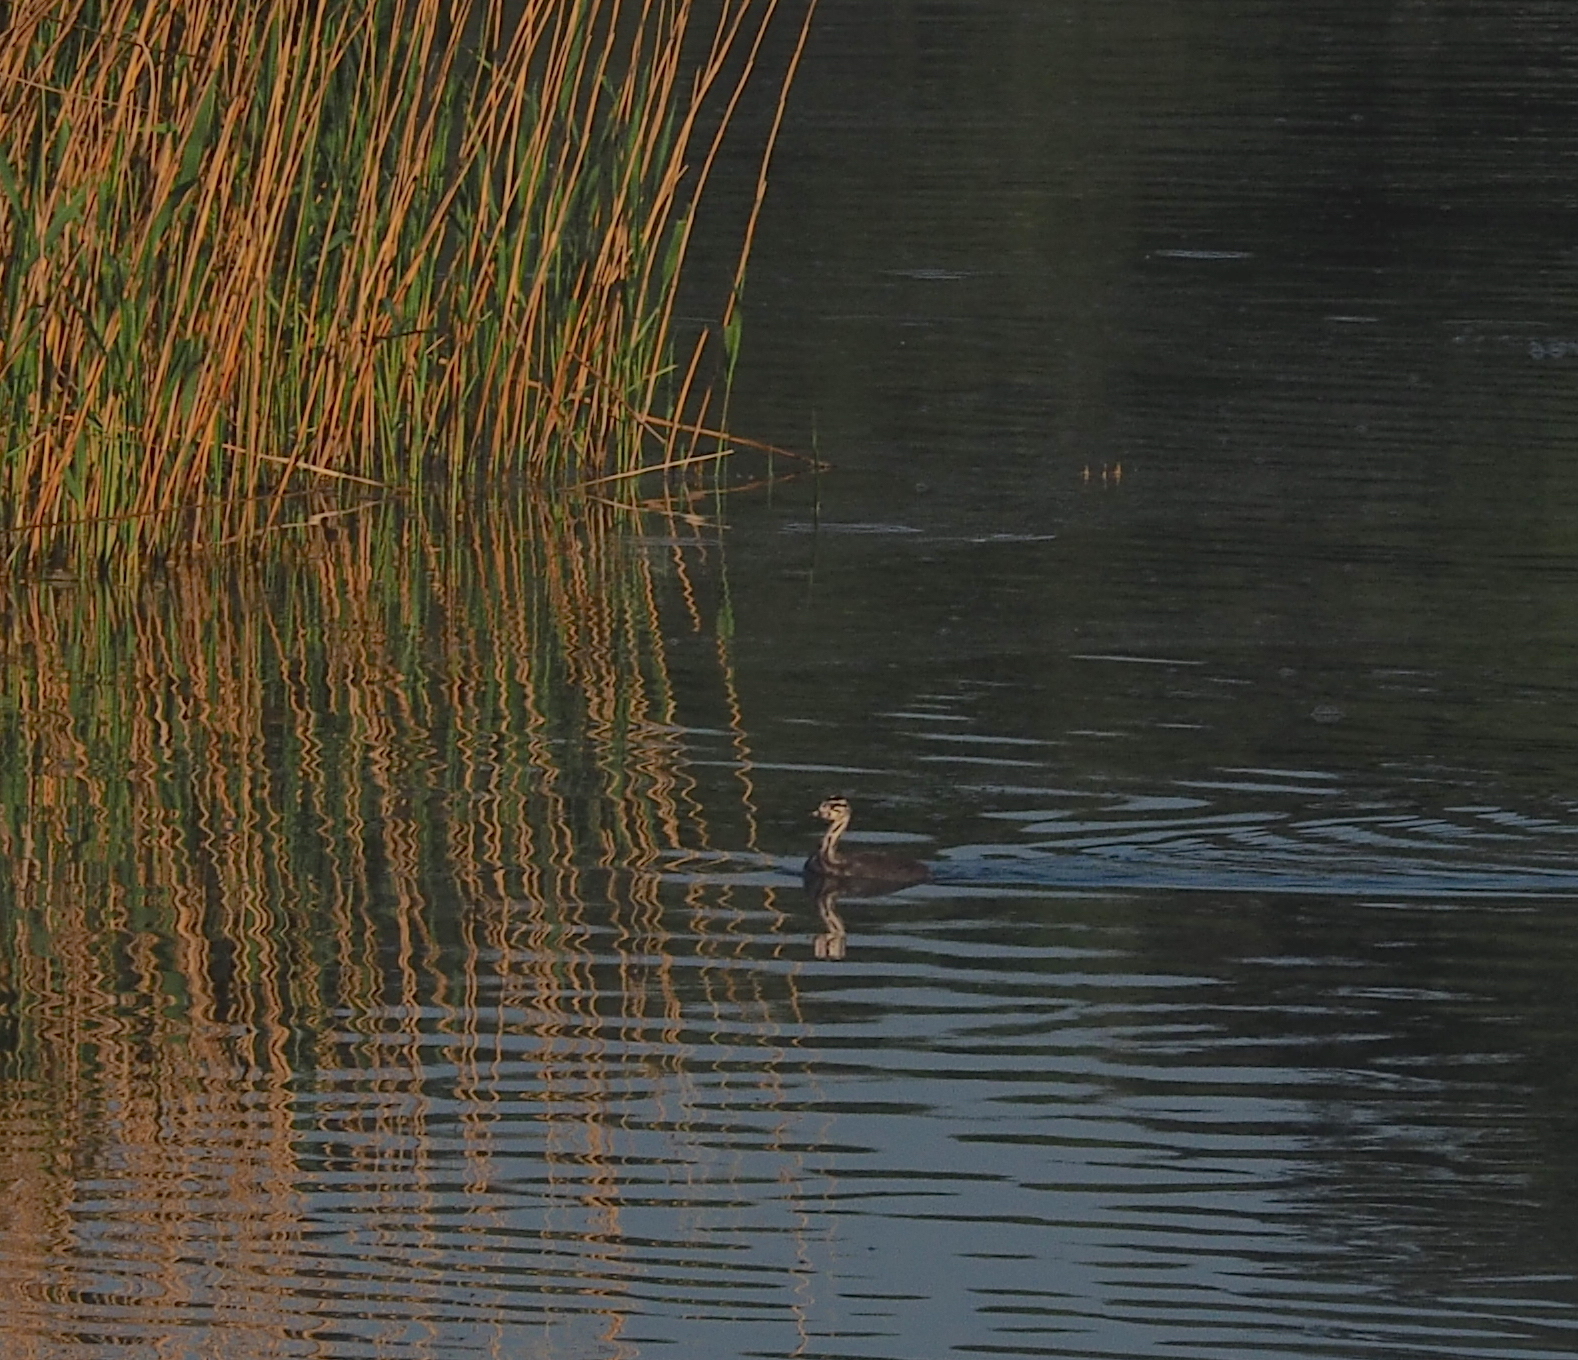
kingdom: Animalia
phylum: Chordata
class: Aves
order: Podicipediformes
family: Podicipedidae
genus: Podiceps
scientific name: Podiceps cristatus
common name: Great crested grebe
